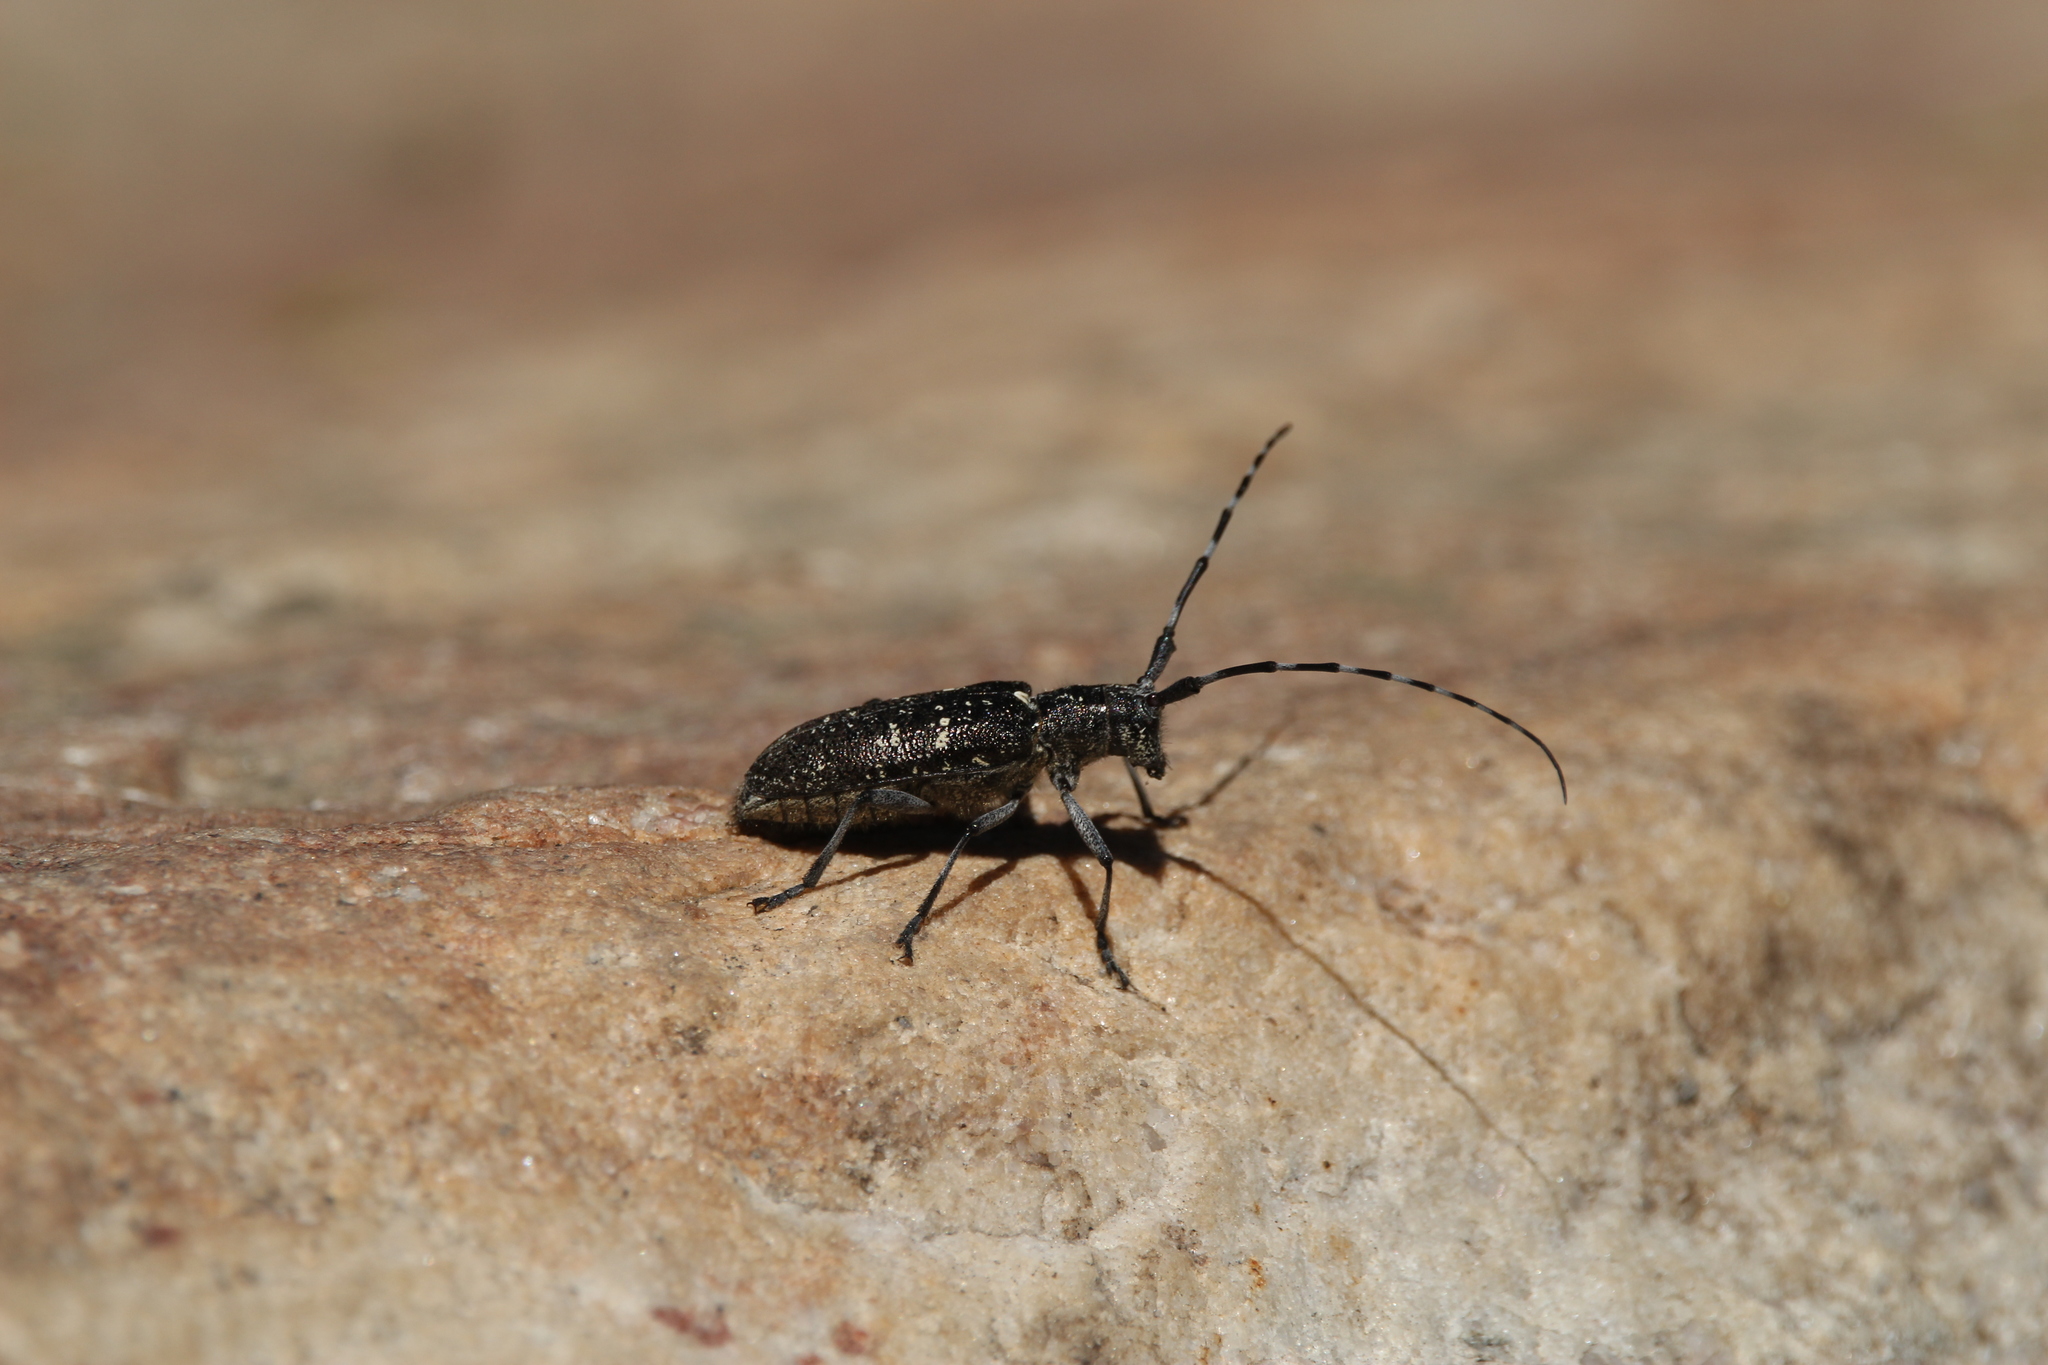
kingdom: Animalia
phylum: Arthropoda
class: Insecta
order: Coleoptera
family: Cerambycidae
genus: Monochamus
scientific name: Monochamus scutellatus
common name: White-spotted sawyer beetle
